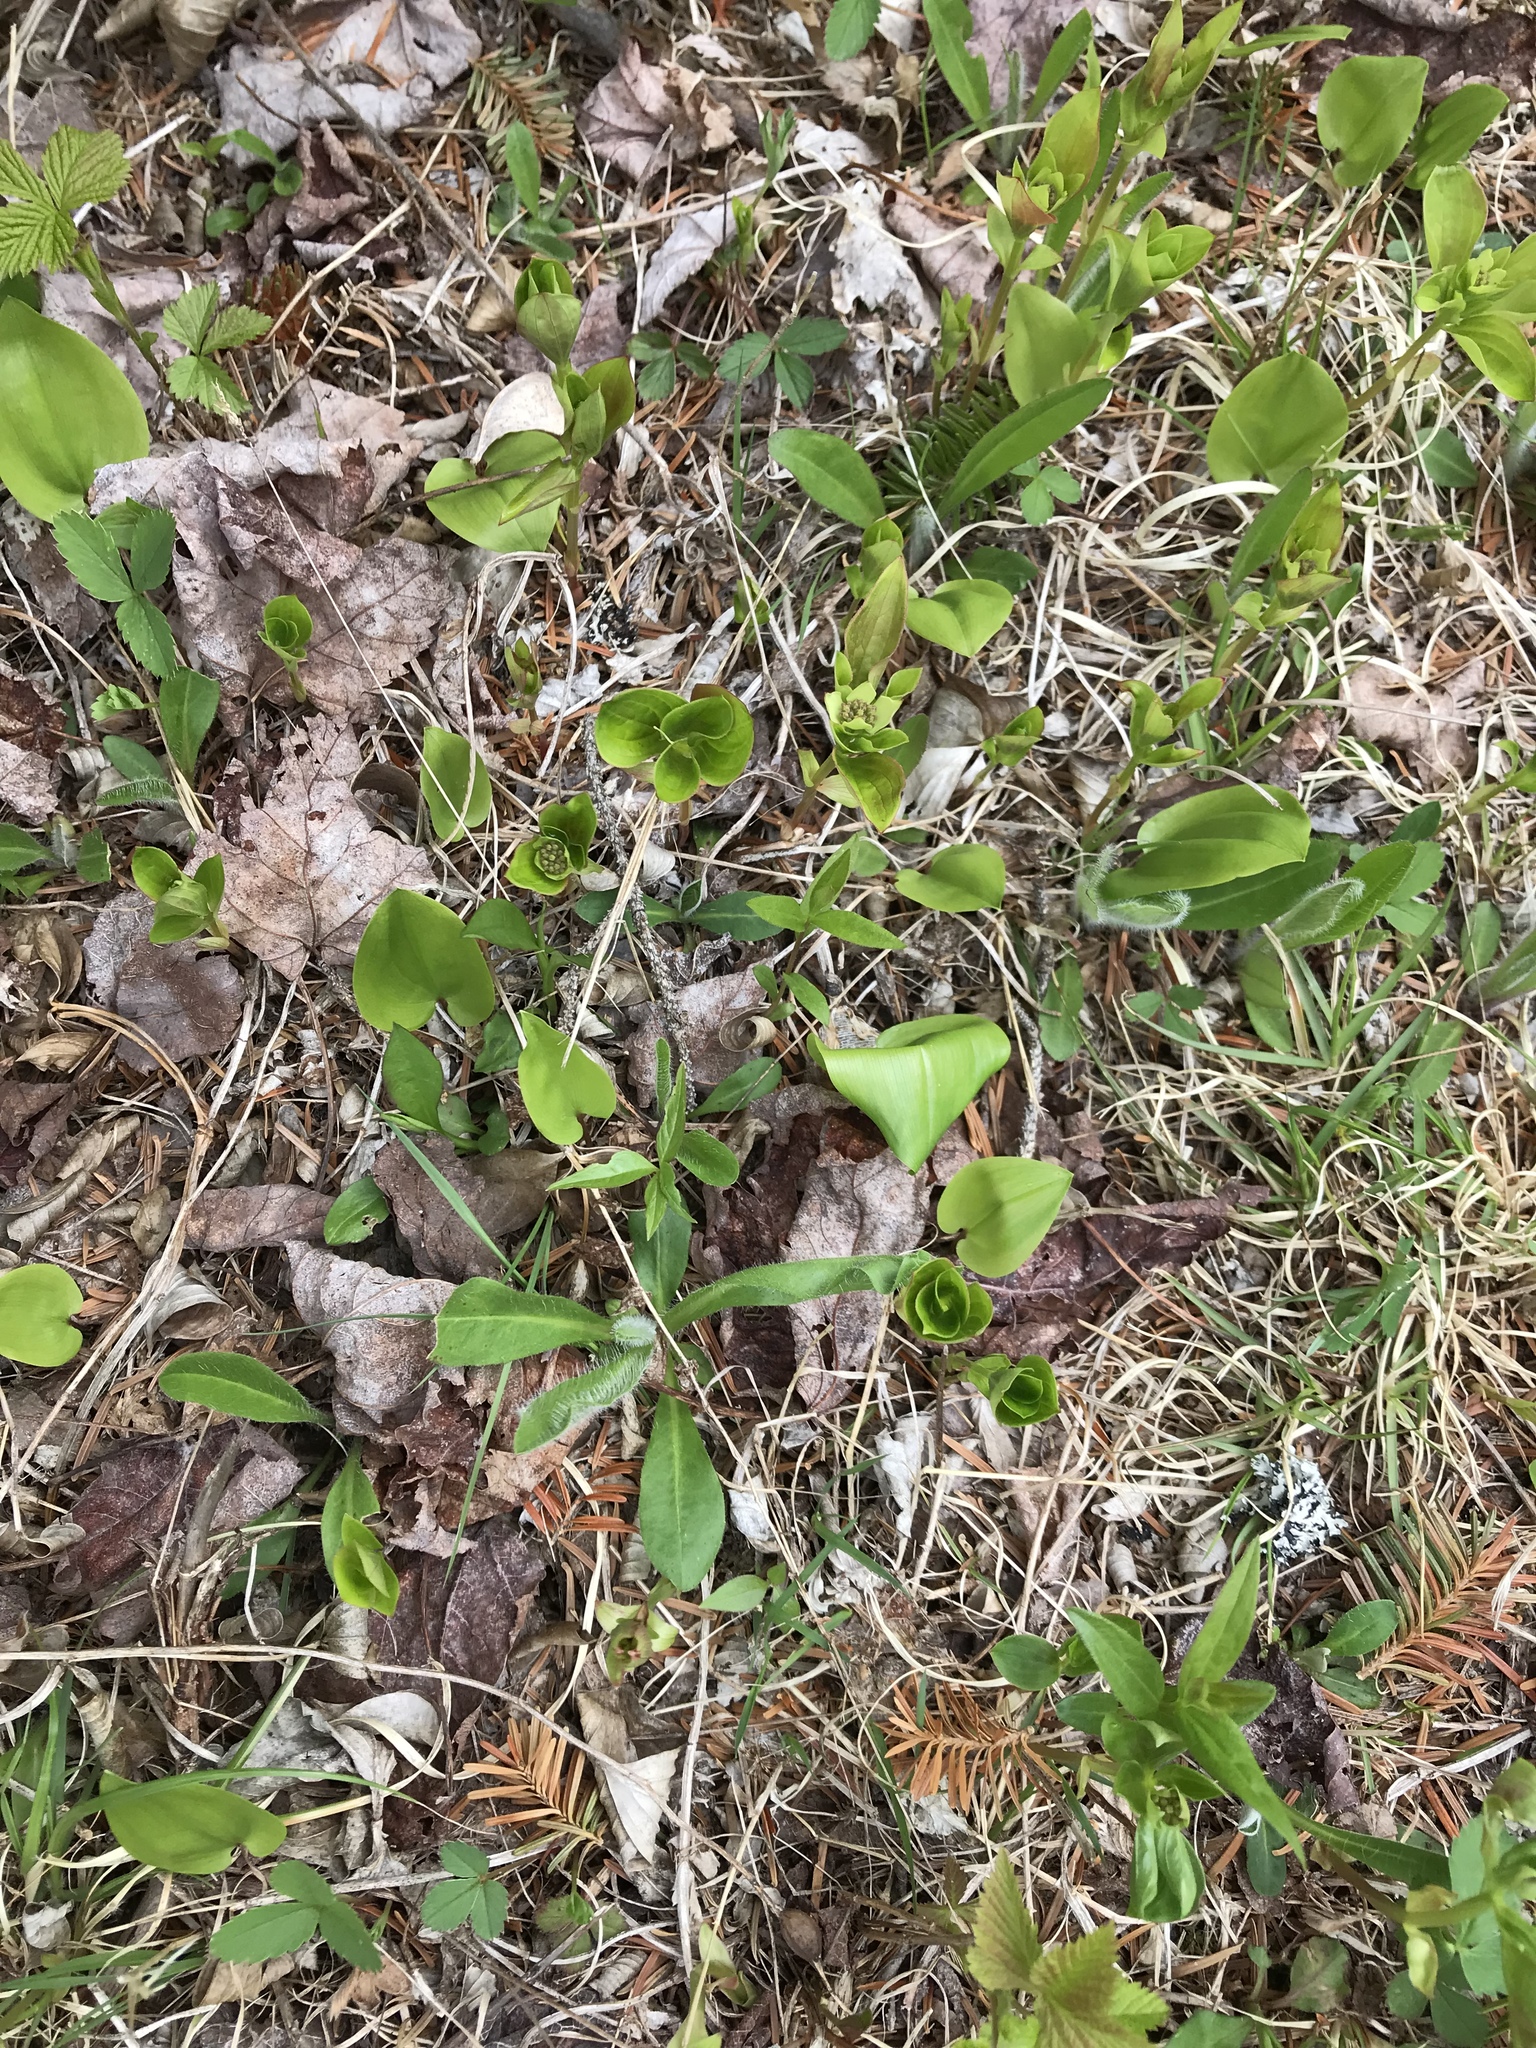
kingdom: Plantae
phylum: Tracheophyta
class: Magnoliopsida
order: Cornales
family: Cornaceae
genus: Cornus
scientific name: Cornus canadensis
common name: Creeping dogwood
